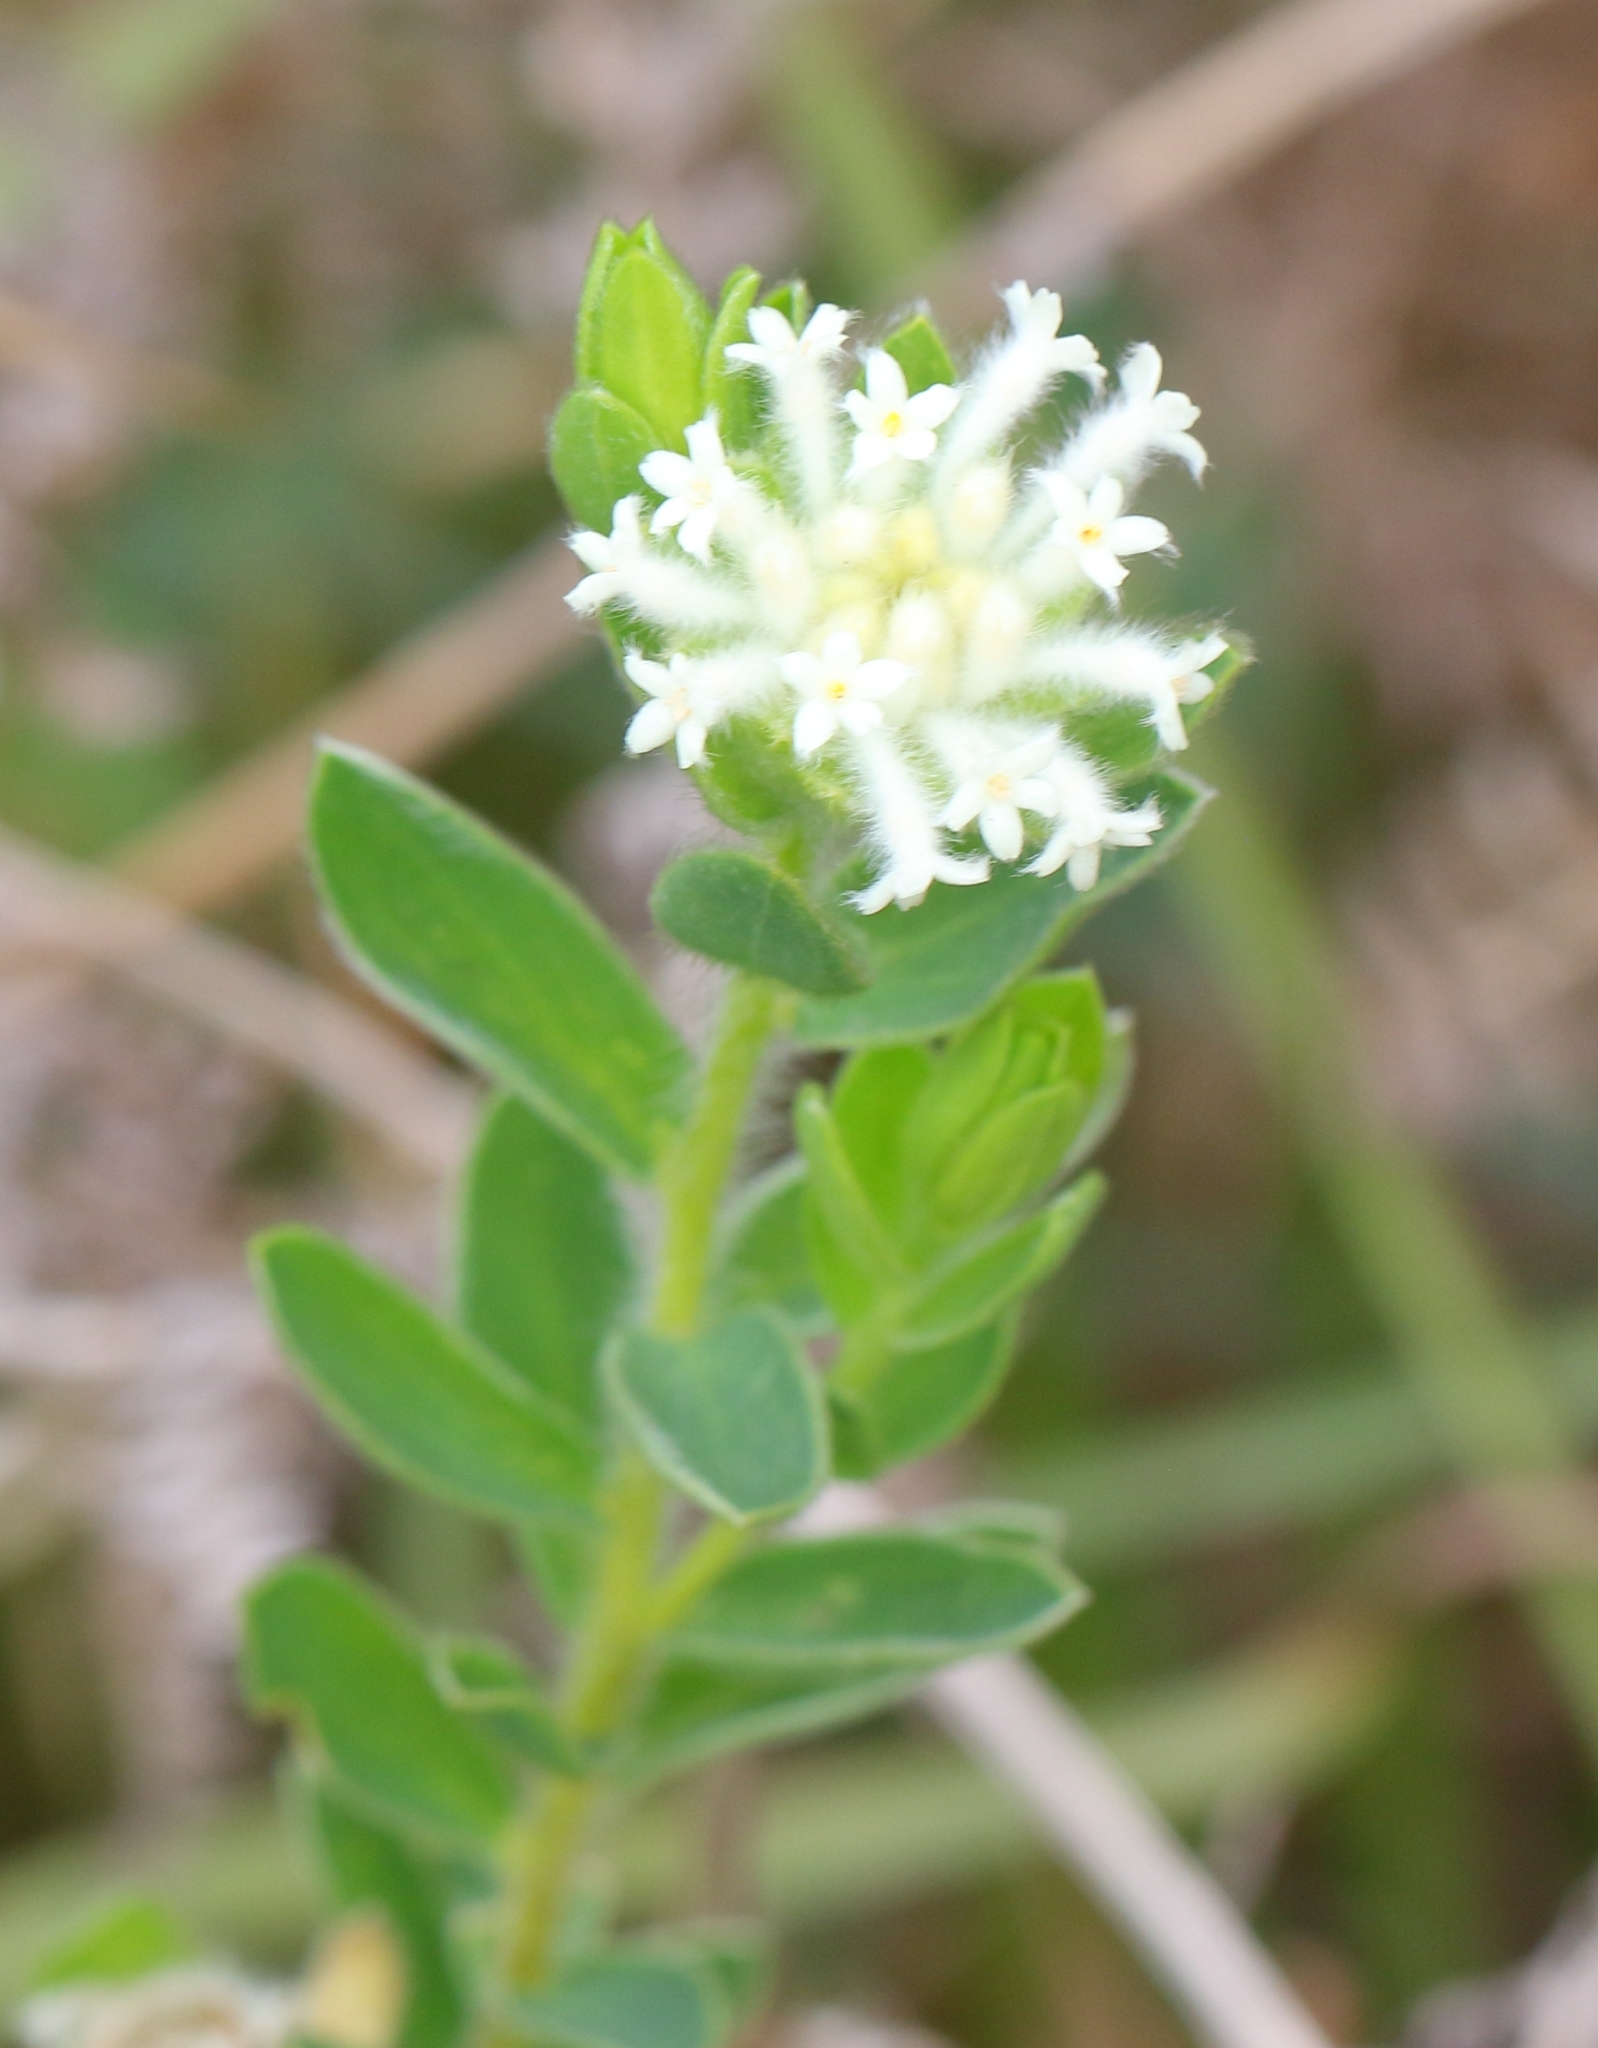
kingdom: Plantae
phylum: Tracheophyta
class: Magnoliopsida
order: Malvales
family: Thymelaeaceae
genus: Gnidia
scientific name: Gnidia calocephala
